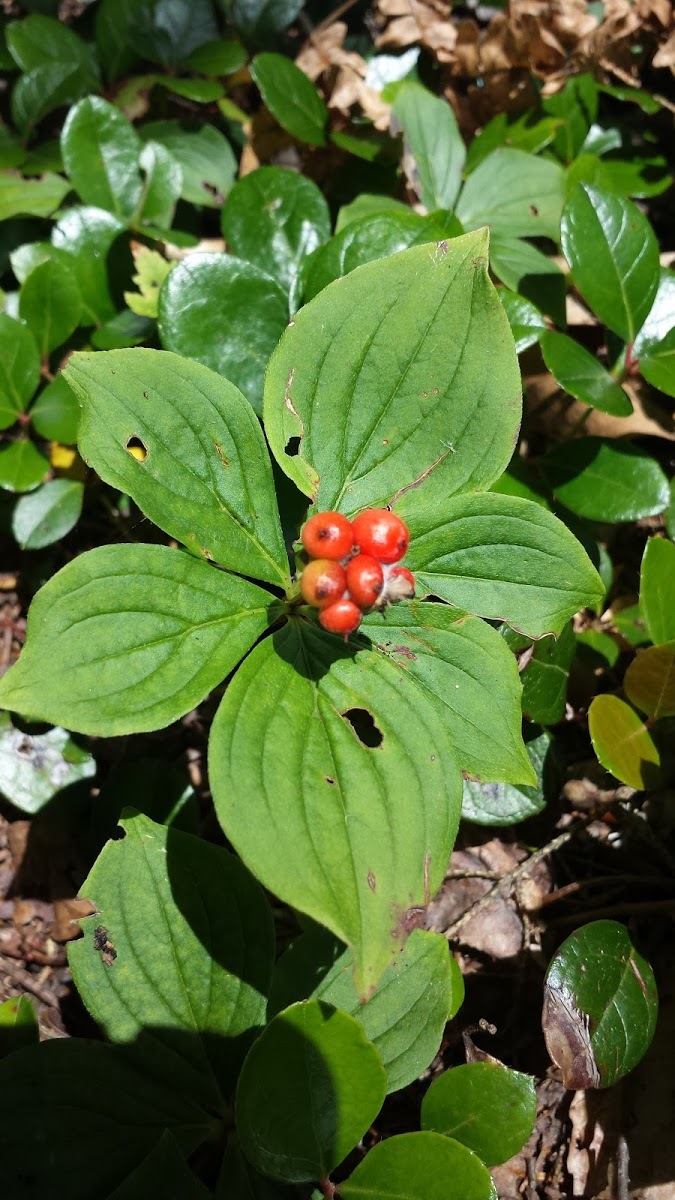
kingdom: Plantae
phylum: Tracheophyta
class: Magnoliopsida
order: Cornales
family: Cornaceae
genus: Cornus
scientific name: Cornus canadensis
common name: Creeping dogwood
